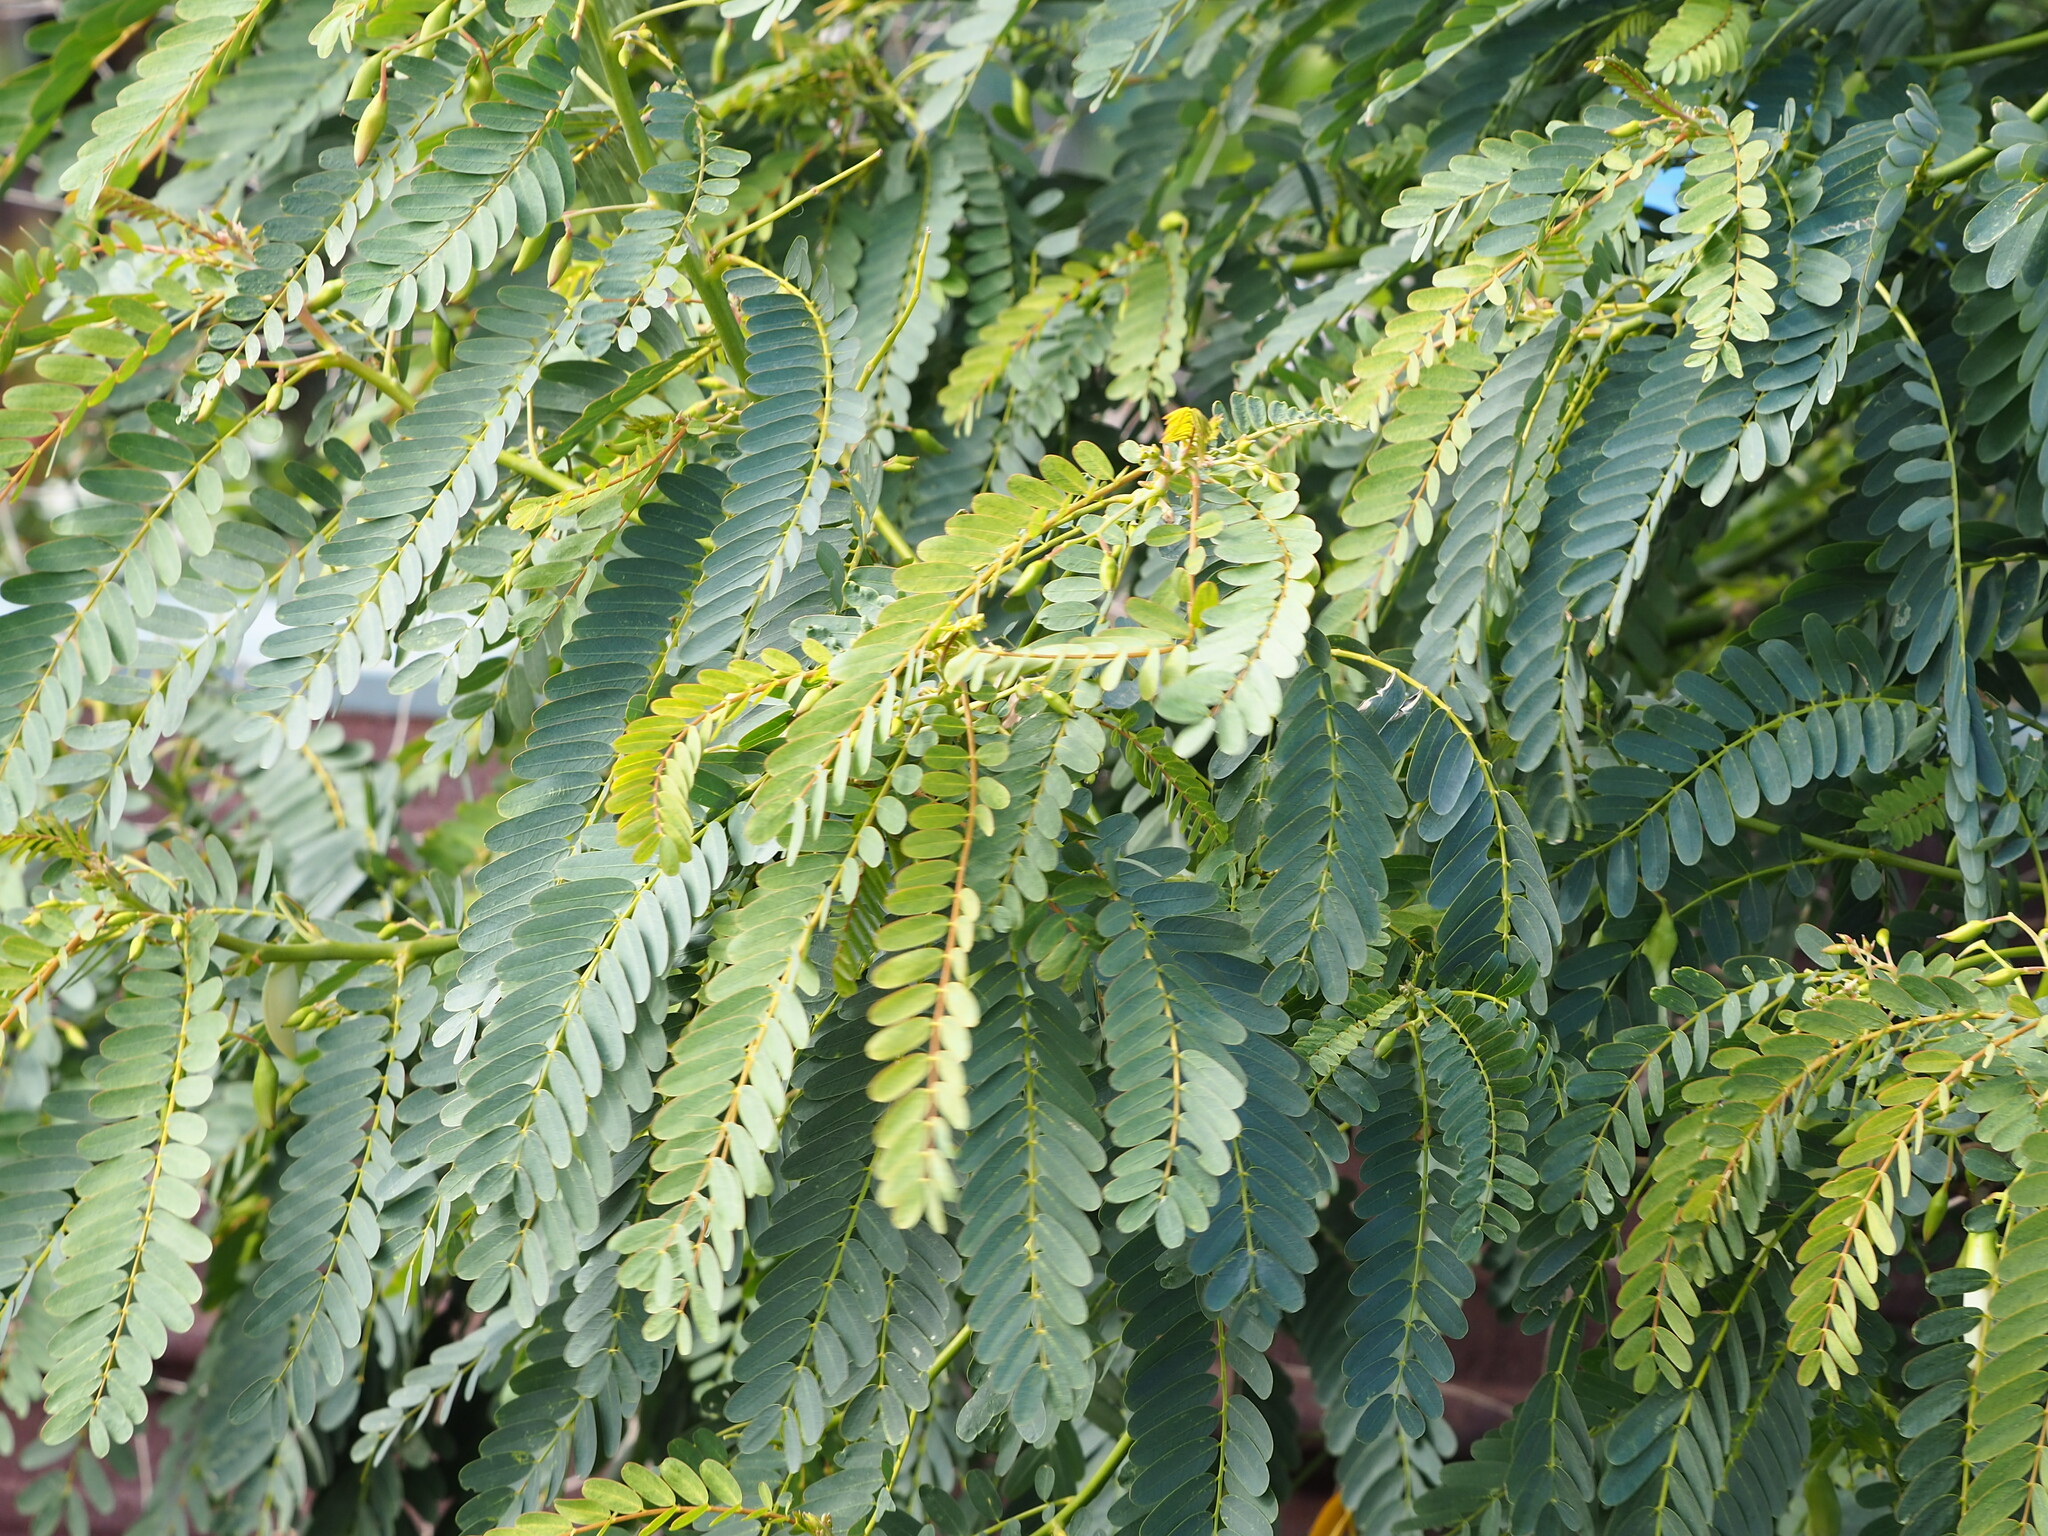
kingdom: Plantae
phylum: Tracheophyta
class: Magnoliopsida
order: Fabales
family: Fabaceae
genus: Sesbania
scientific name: Sesbania grandiflora
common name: Vegetable-hummingbird
